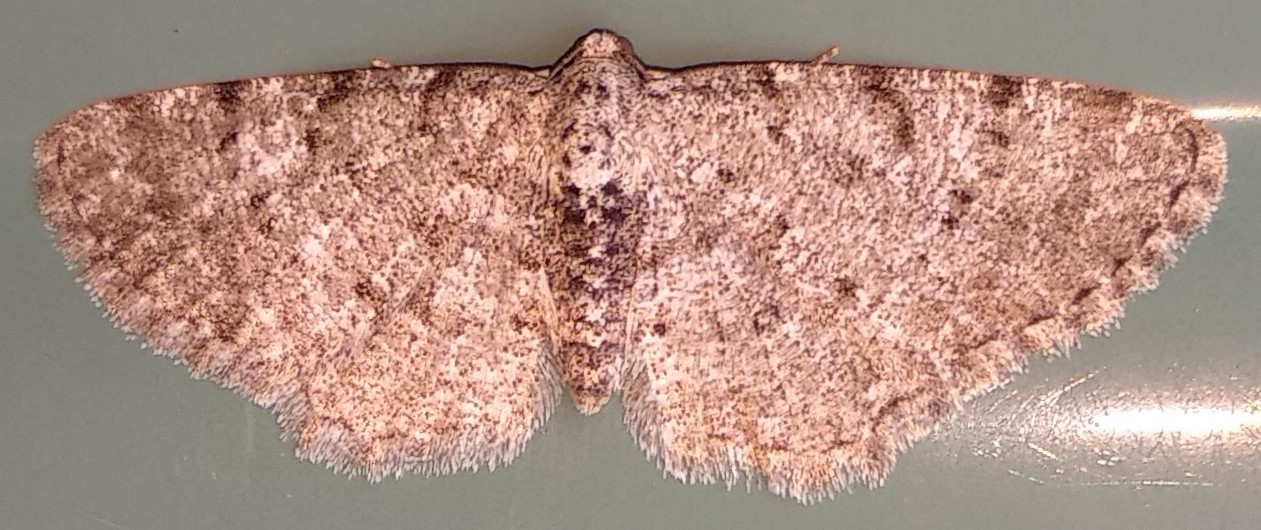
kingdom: Animalia
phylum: Arthropoda
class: Insecta
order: Lepidoptera
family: Geometridae
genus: Aethalura
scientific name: Aethalura intertexta
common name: Four-barred gray
